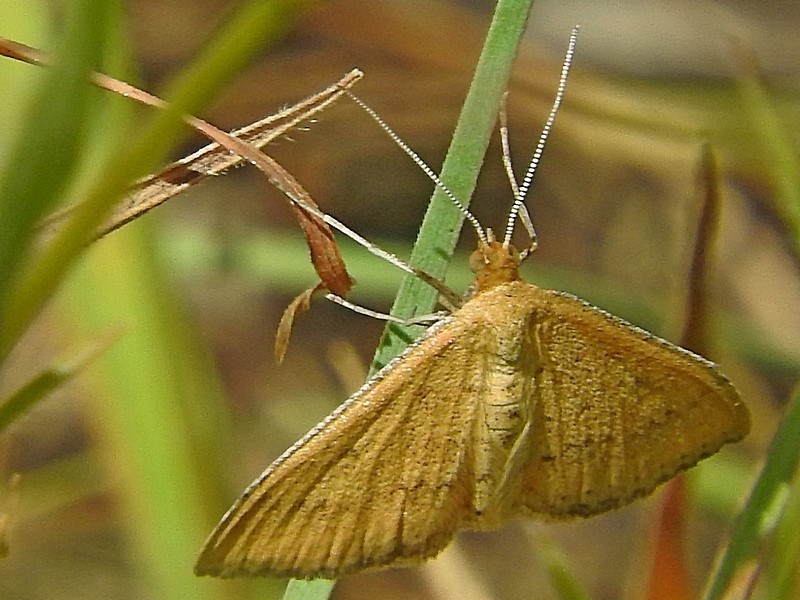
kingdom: Animalia
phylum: Arthropoda
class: Insecta
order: Lepidoptera
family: Geometridae
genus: Scopula
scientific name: Scopula rubraria
